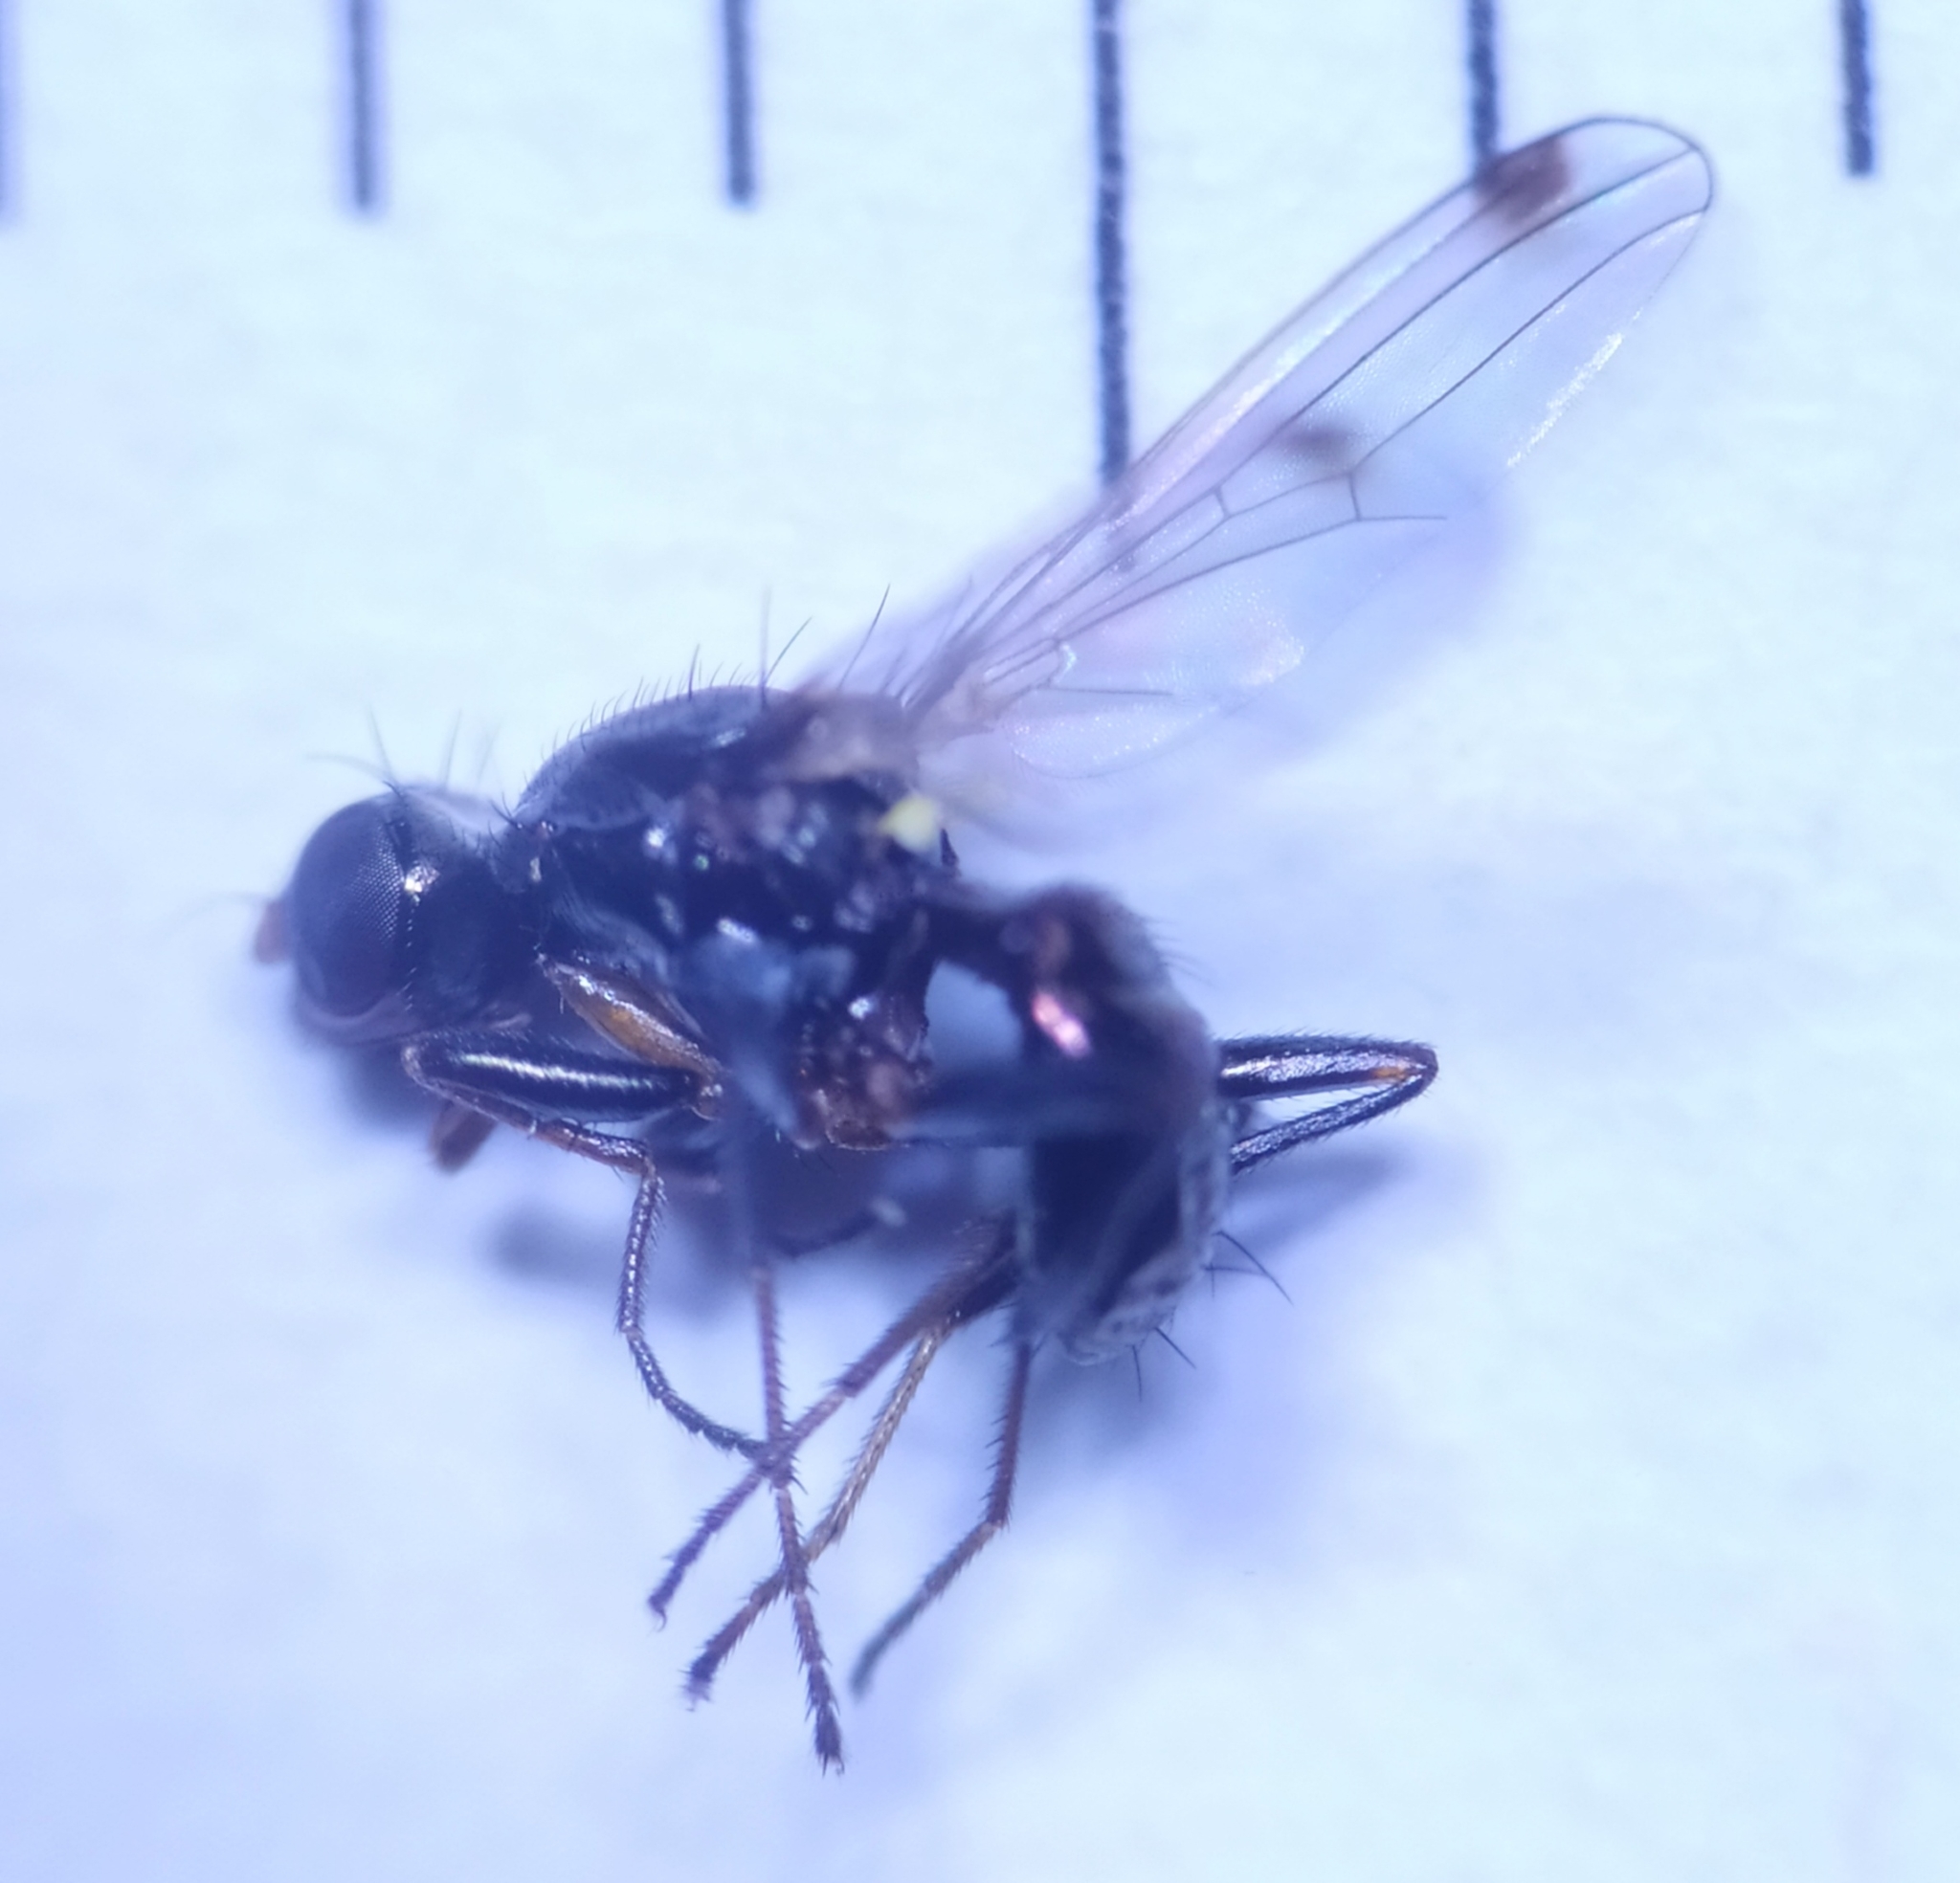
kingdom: Animalia
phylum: Arthropoda
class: Insecta
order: Diptera
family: Sepsidae
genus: Sepsis
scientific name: Sepsis fulgens
